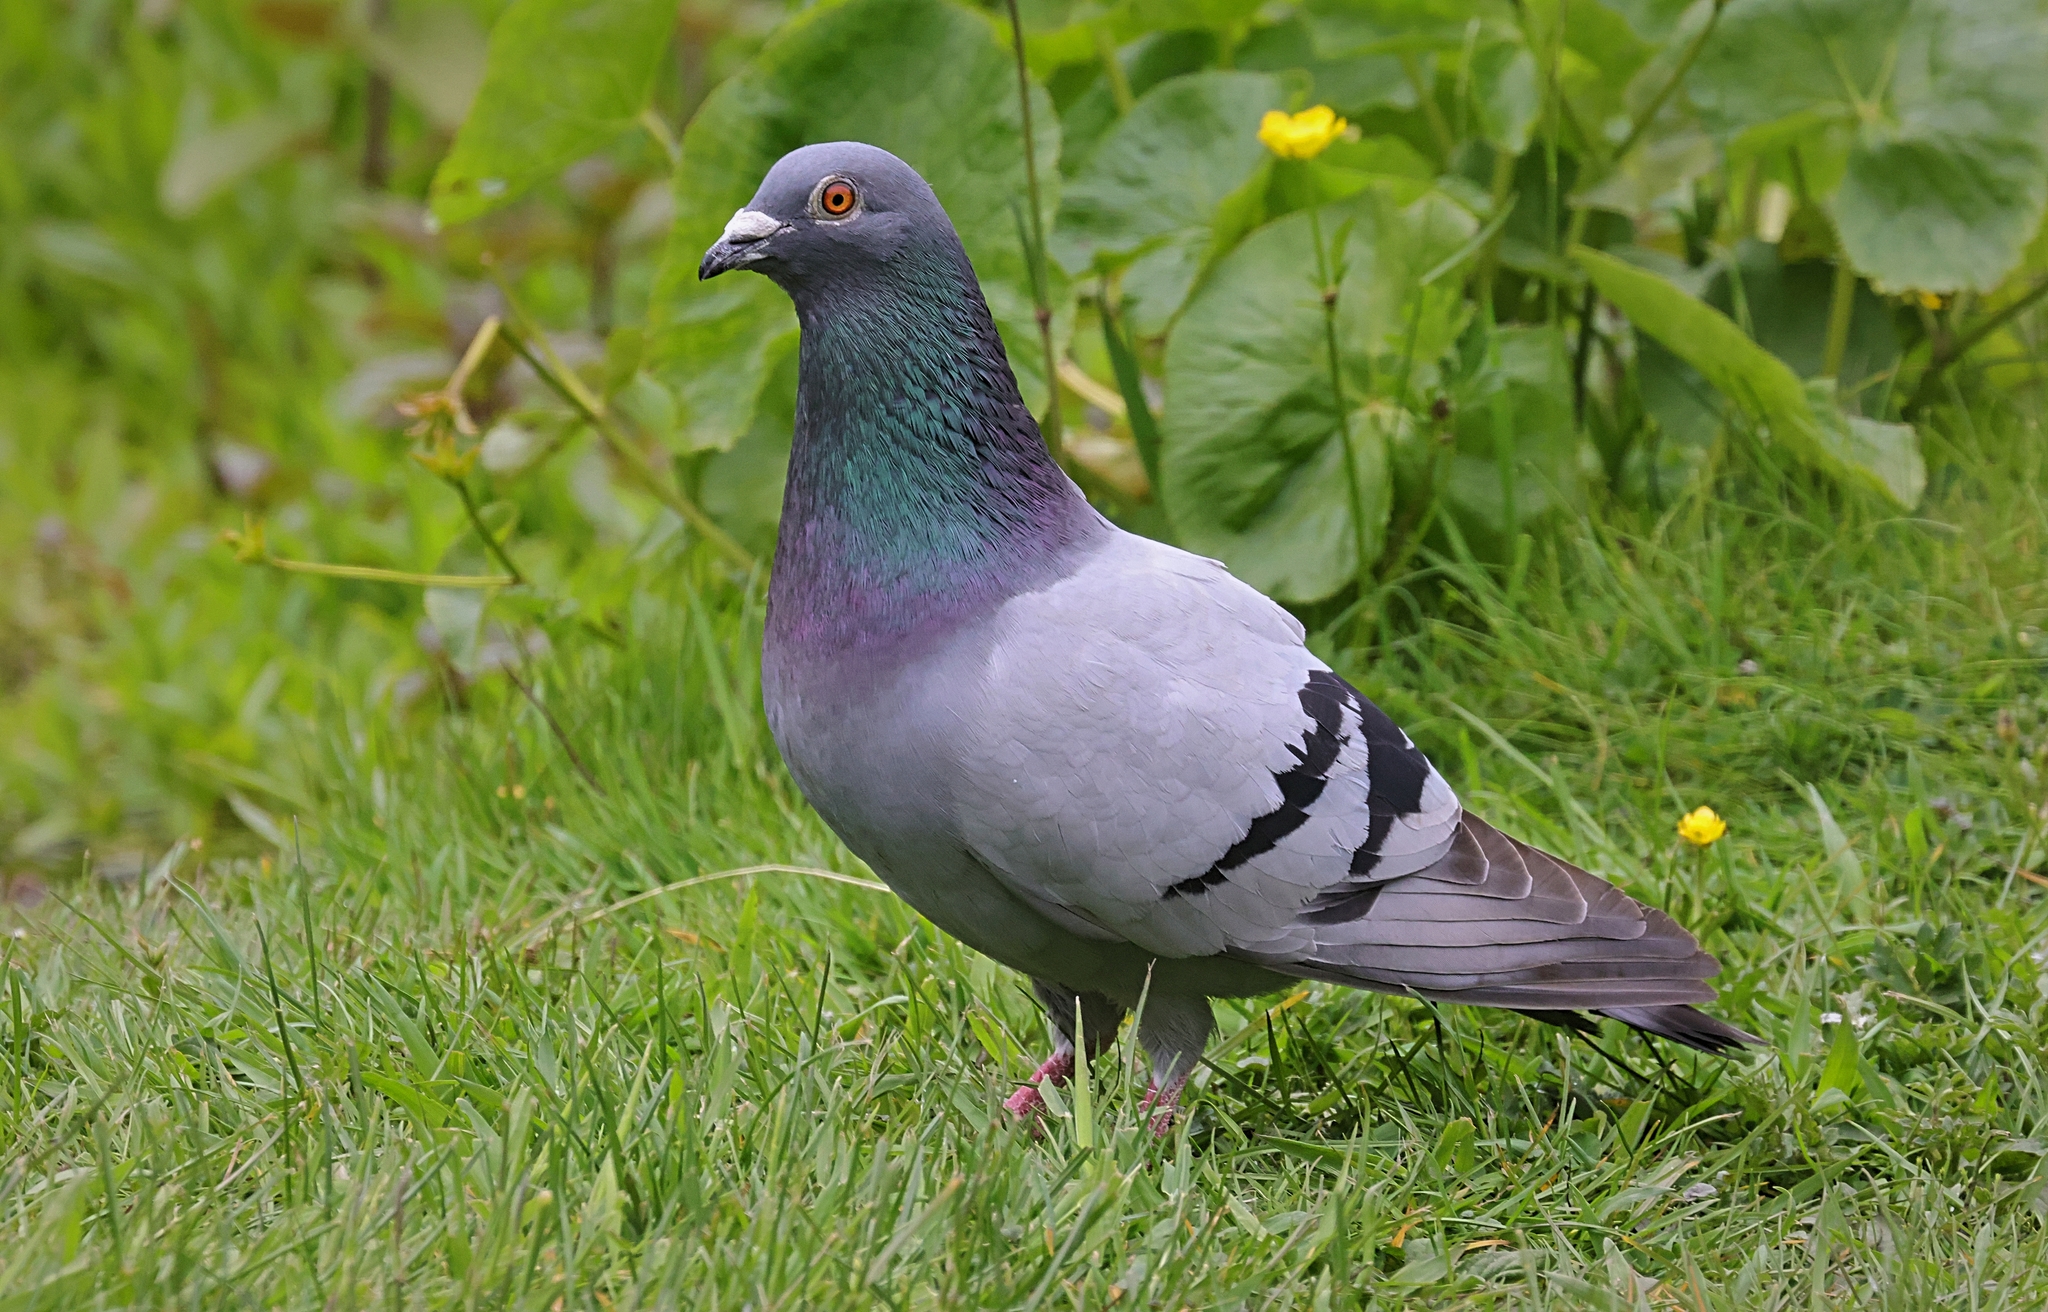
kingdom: Animalia
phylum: Chordata
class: Aves
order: Columbiformes
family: Columbidae
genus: Columba
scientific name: Columba livia
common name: Rock pigeon
